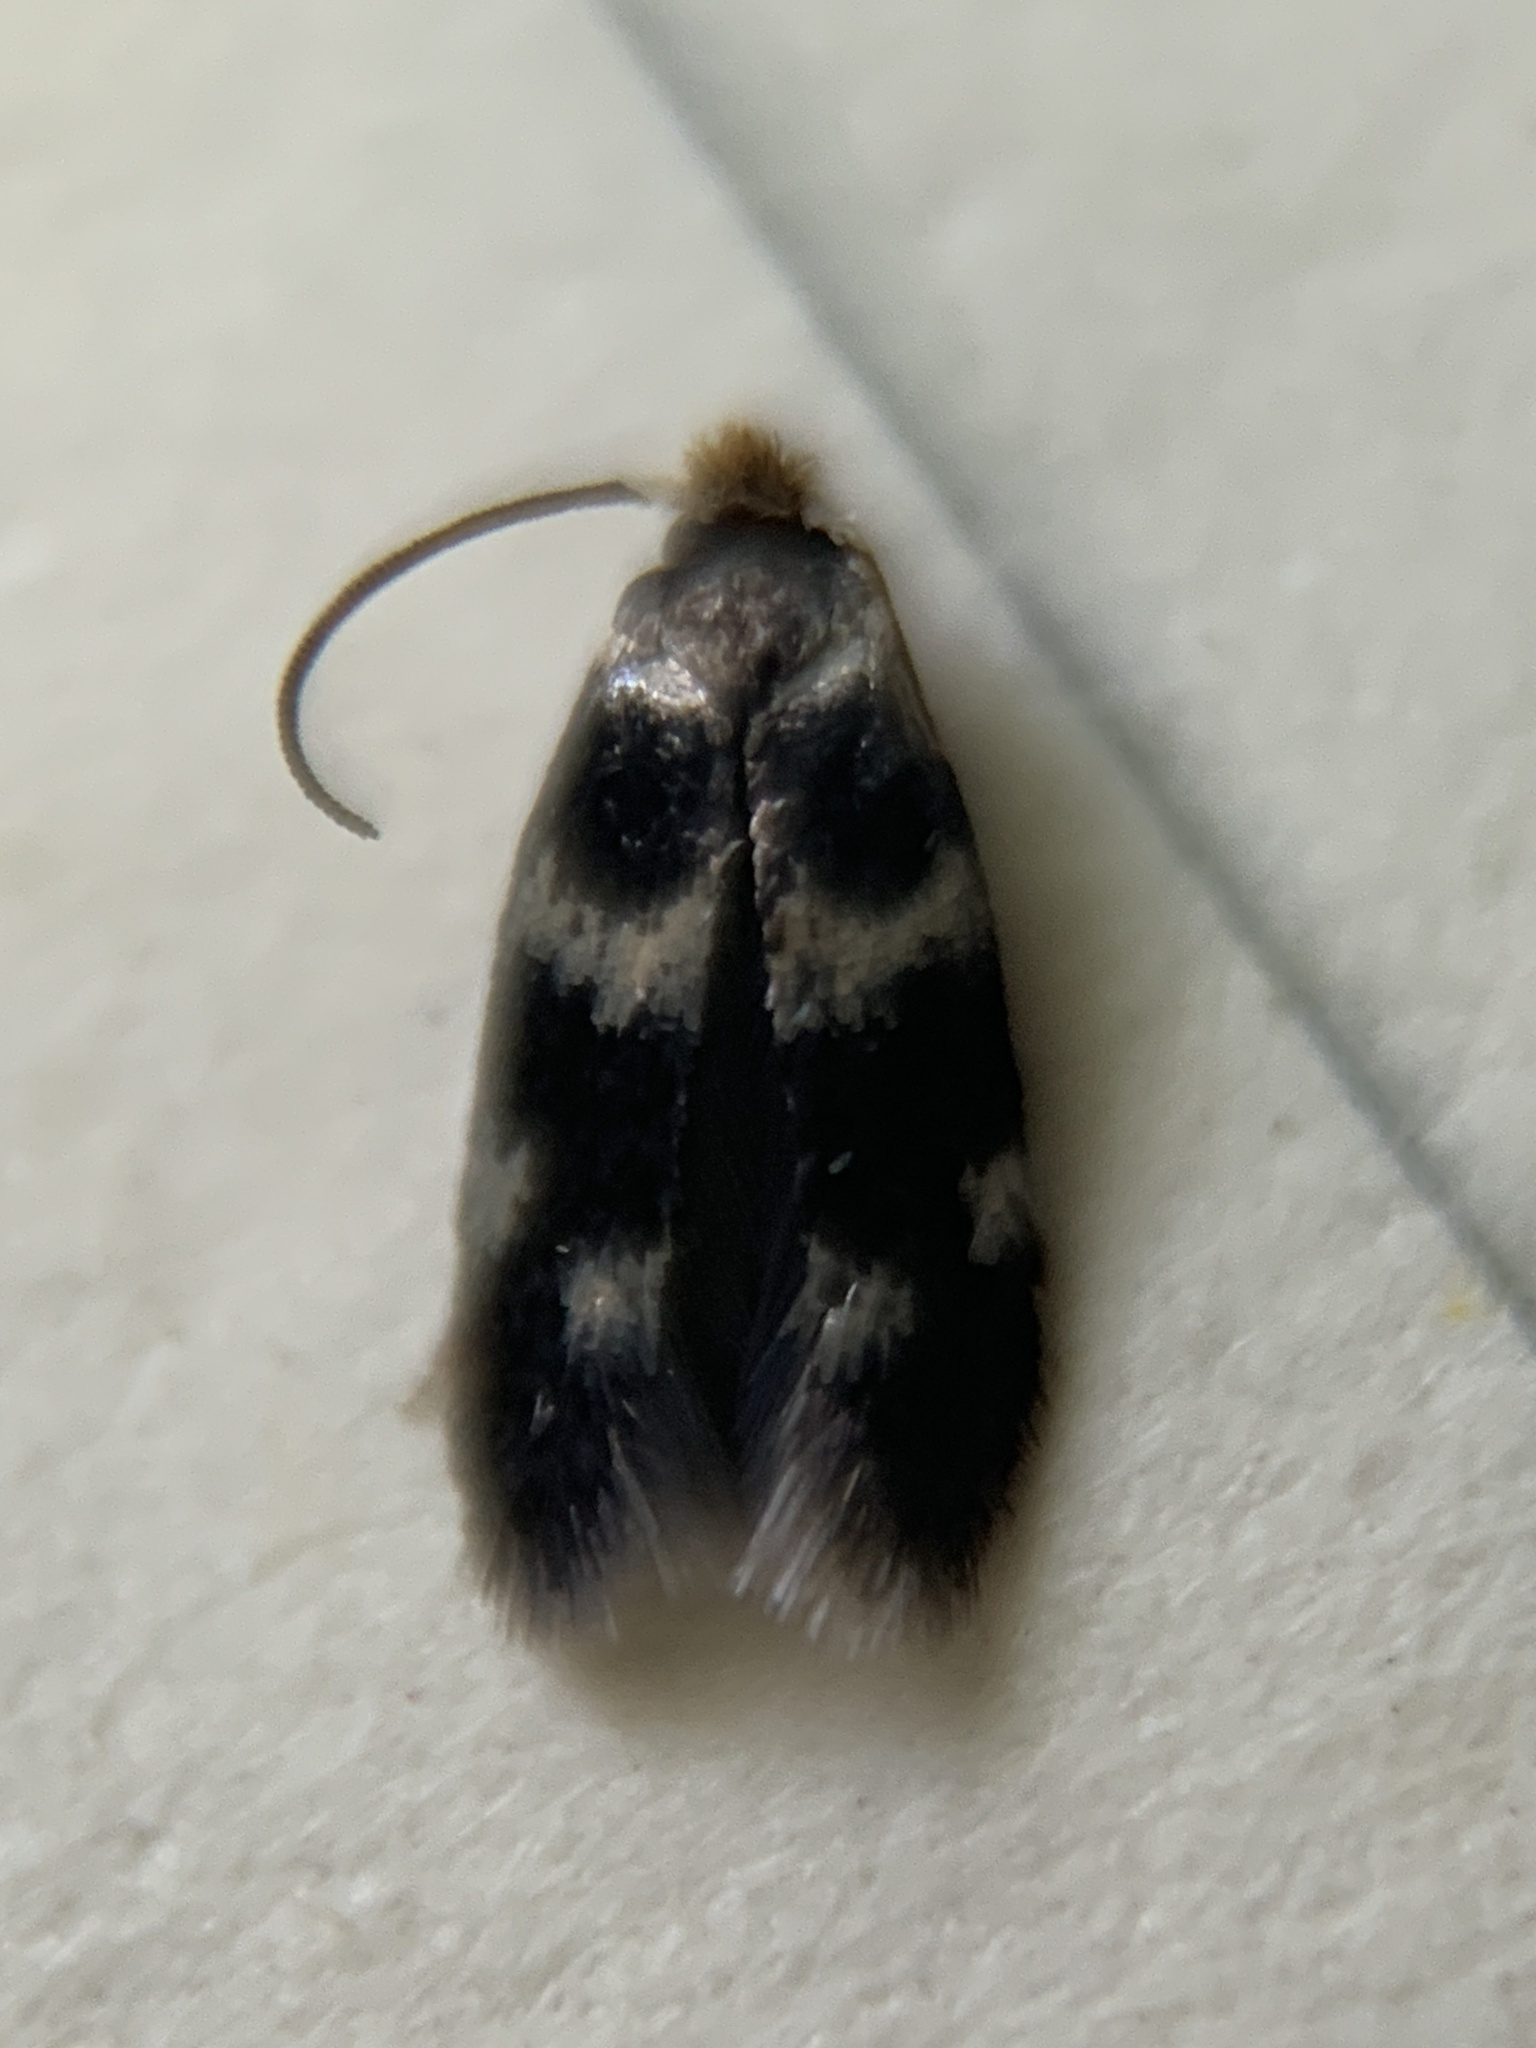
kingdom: Animalia
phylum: Arthropoda
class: Insecta
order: Lepidoptera
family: Nepticulidae
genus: Etainia
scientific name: Etainia sericopeza
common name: Leafminer
